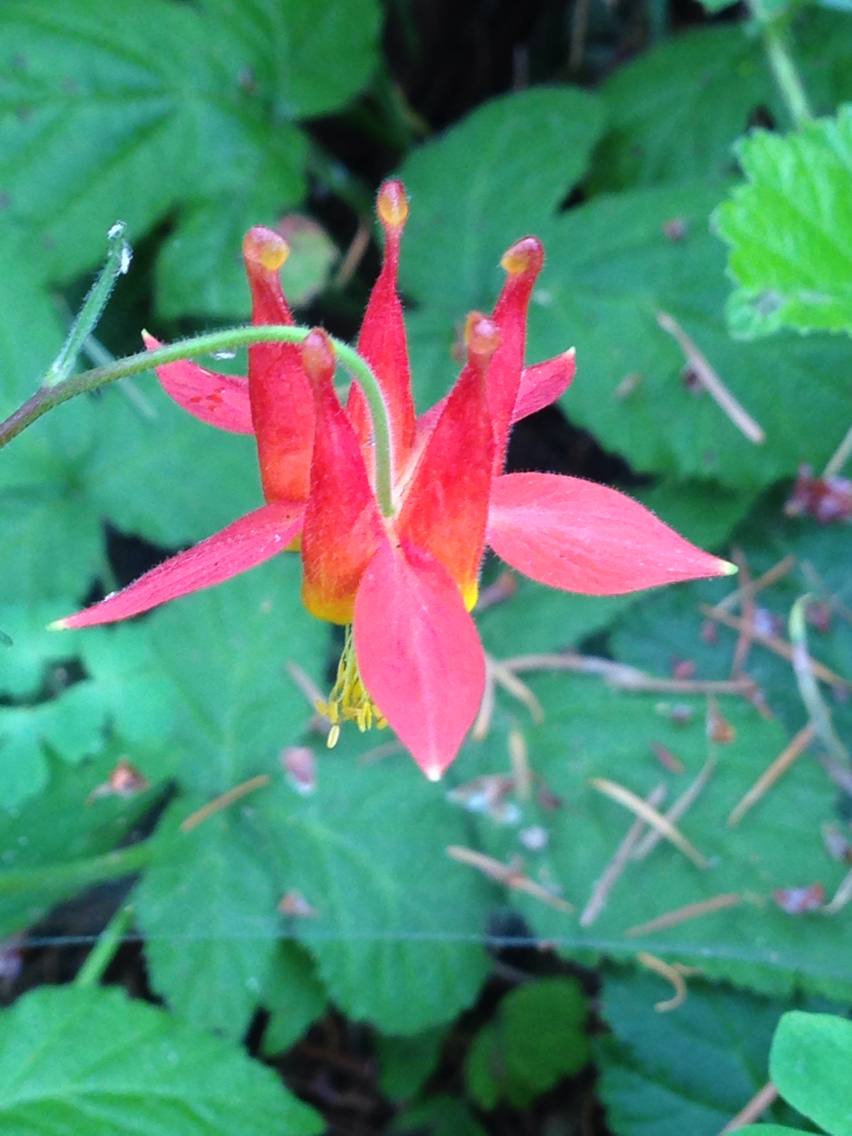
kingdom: Plantae
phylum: Tracheophyta
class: Magnoliopsida
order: Ranunculales
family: Ranunculaceae
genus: Aquilegia
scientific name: Aquilegia formosa
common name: Sitka columbine
